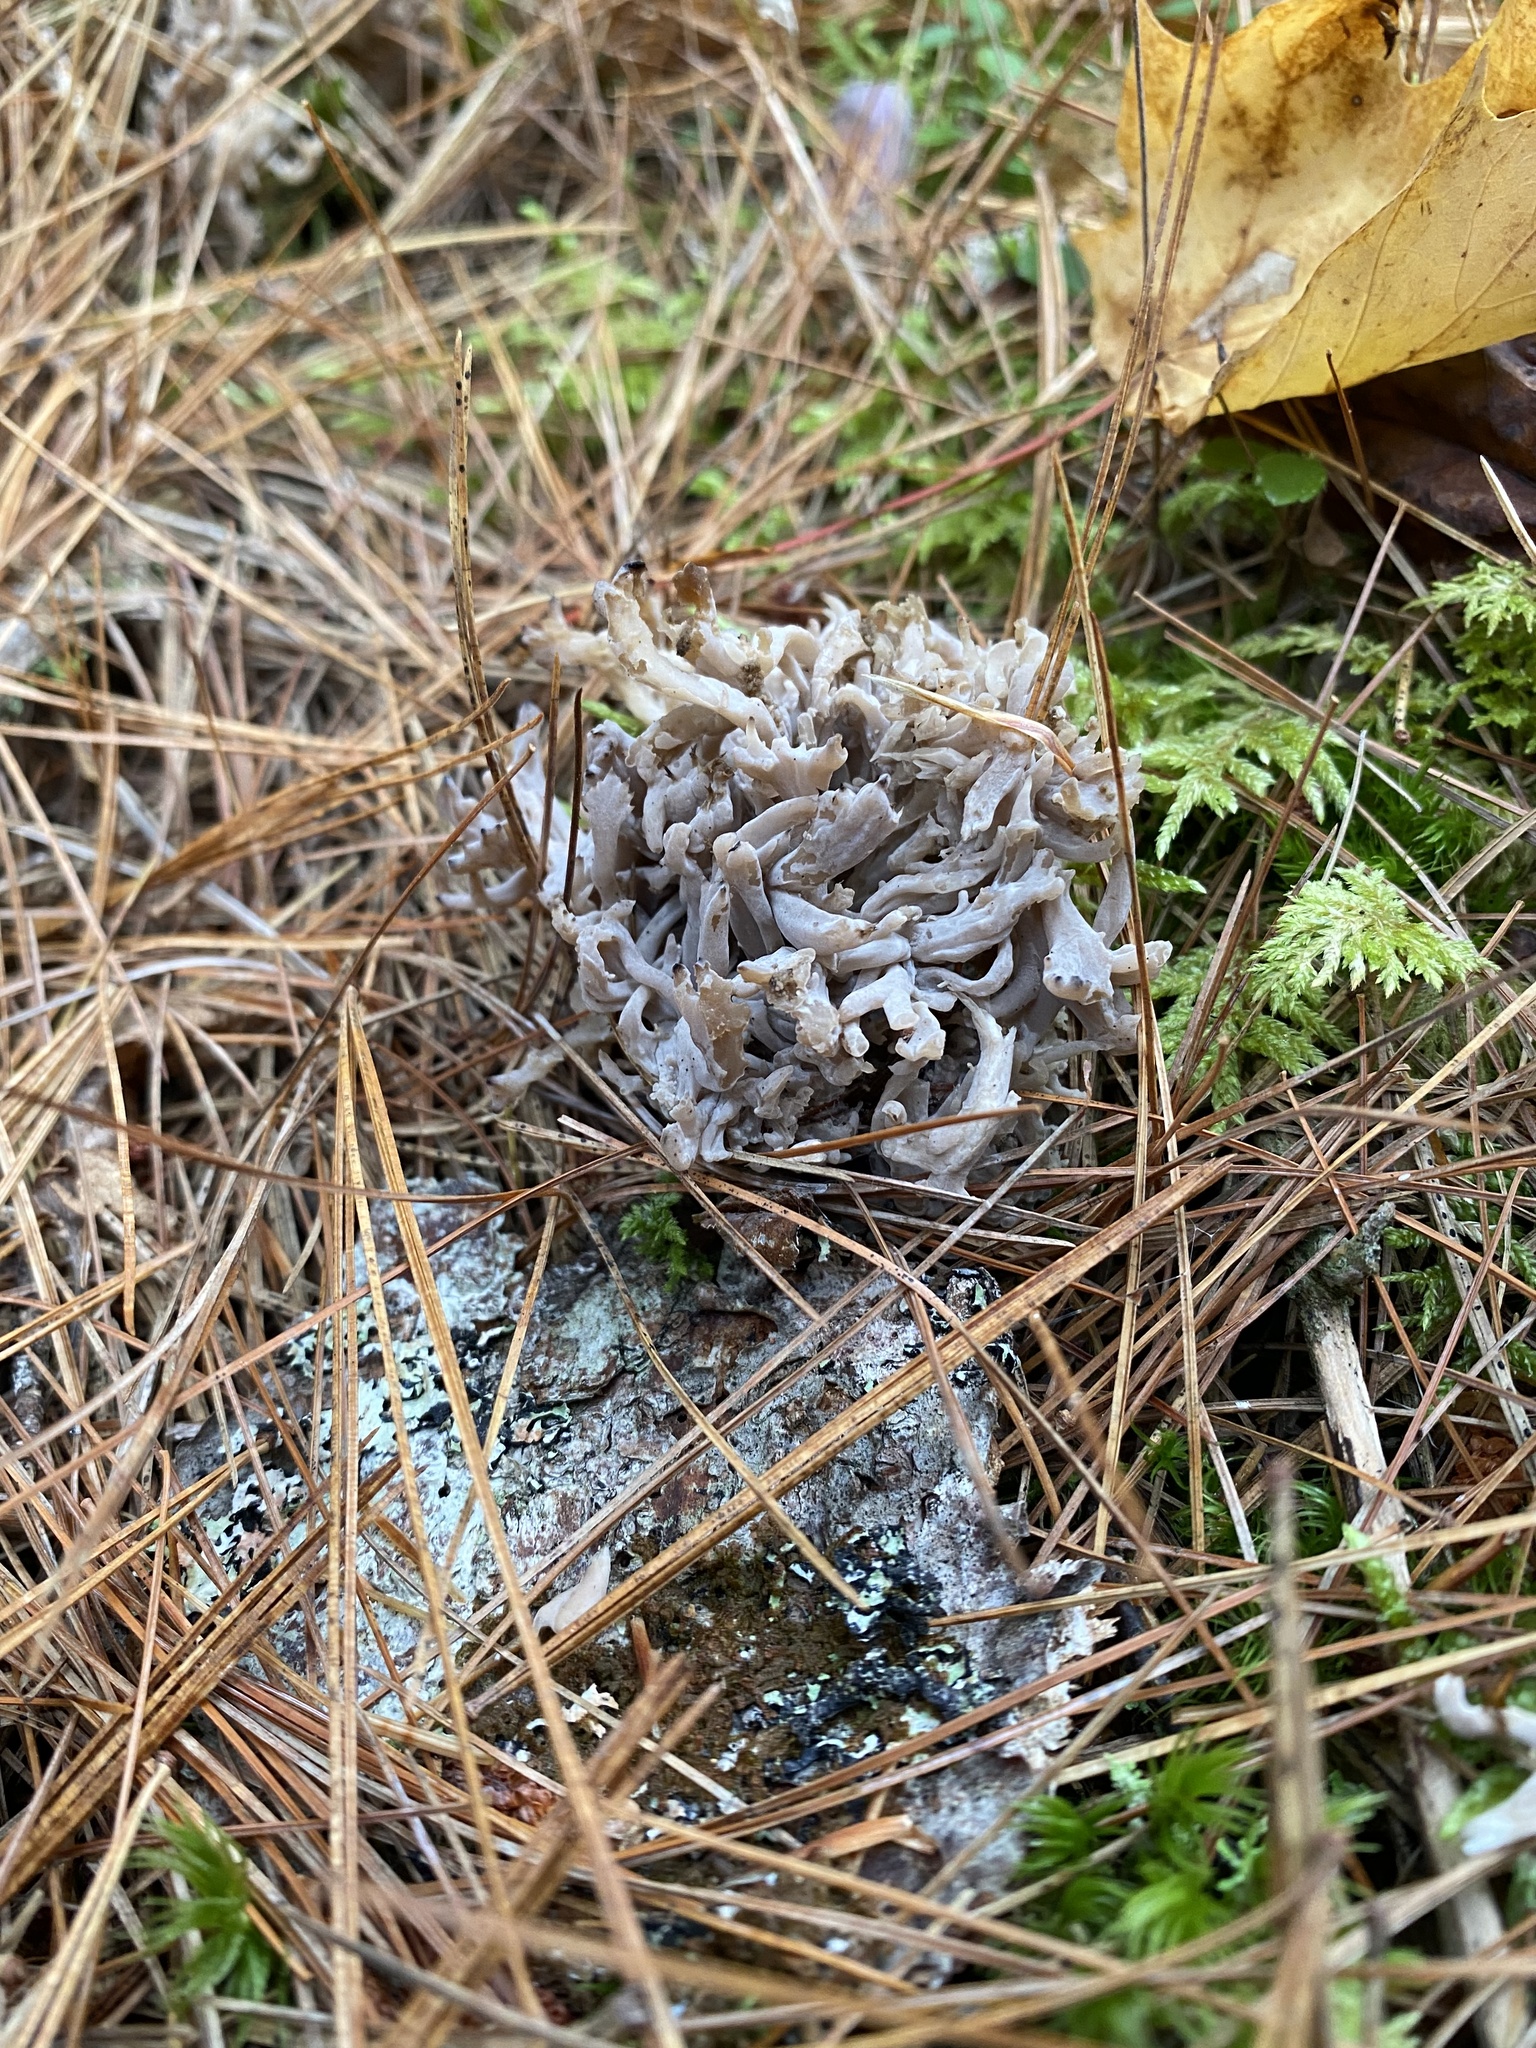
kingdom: Fungi
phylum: Basidiomycota
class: Agaricomycetes
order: Cantharellales
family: Hydnaceae
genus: Clavulina
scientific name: Clavulina cinerea
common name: Grey coral
